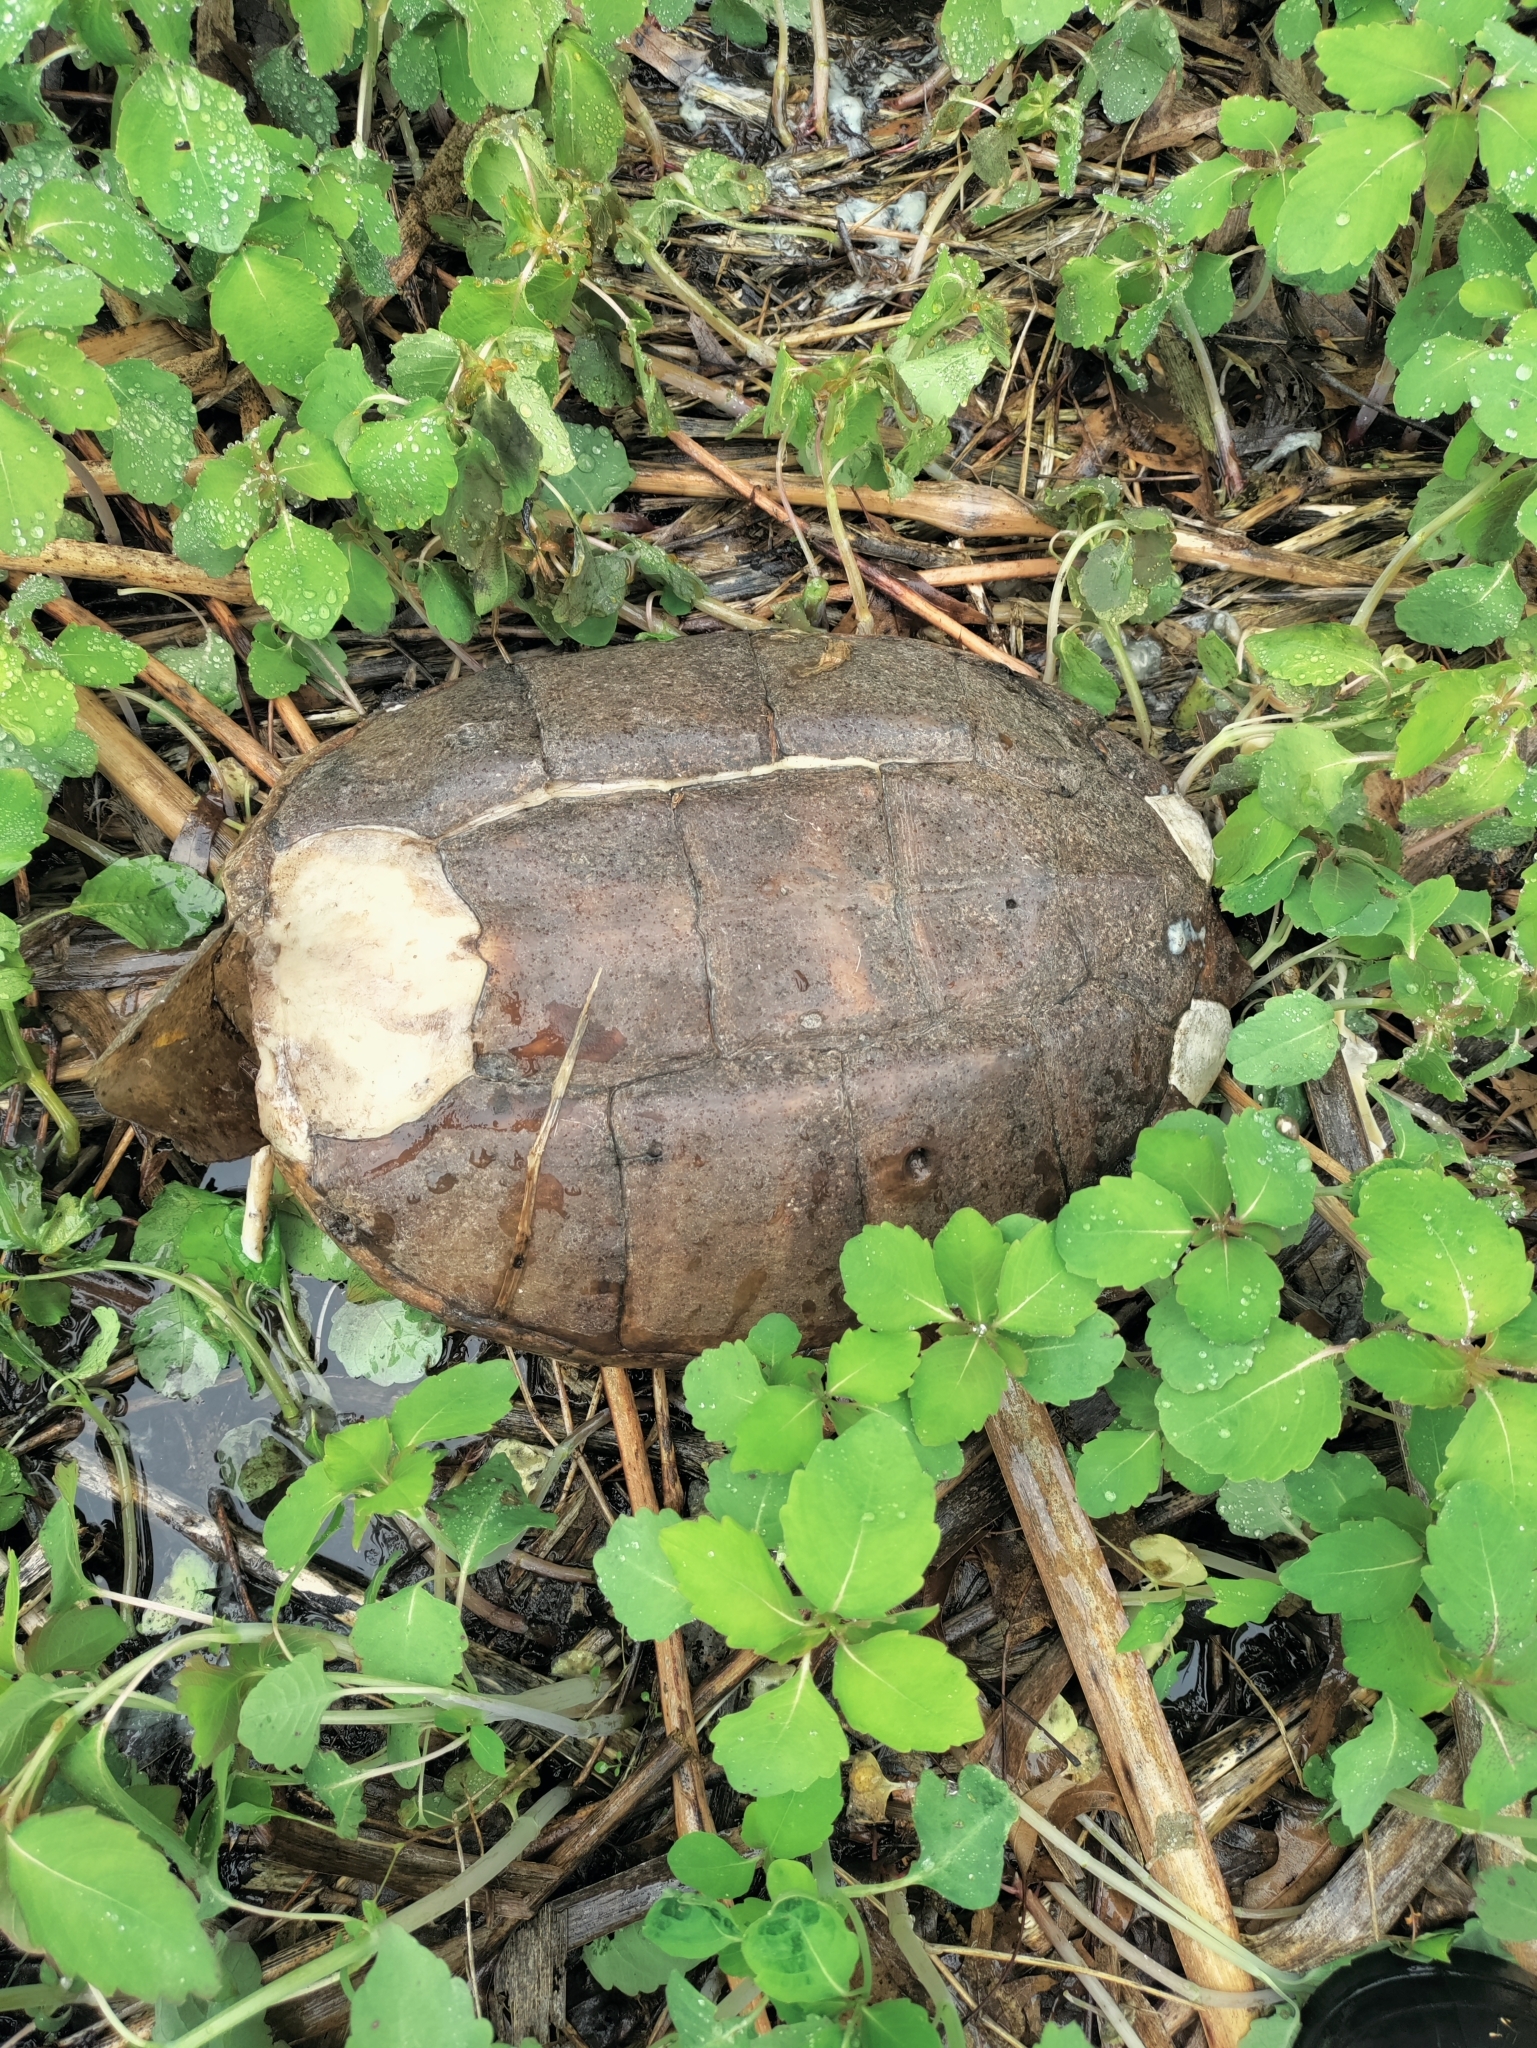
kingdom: Animalia
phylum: Chordata
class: Testudines
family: Chelydridae
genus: Chelydra
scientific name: Chelydra serpentina
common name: Common snapping turtle
